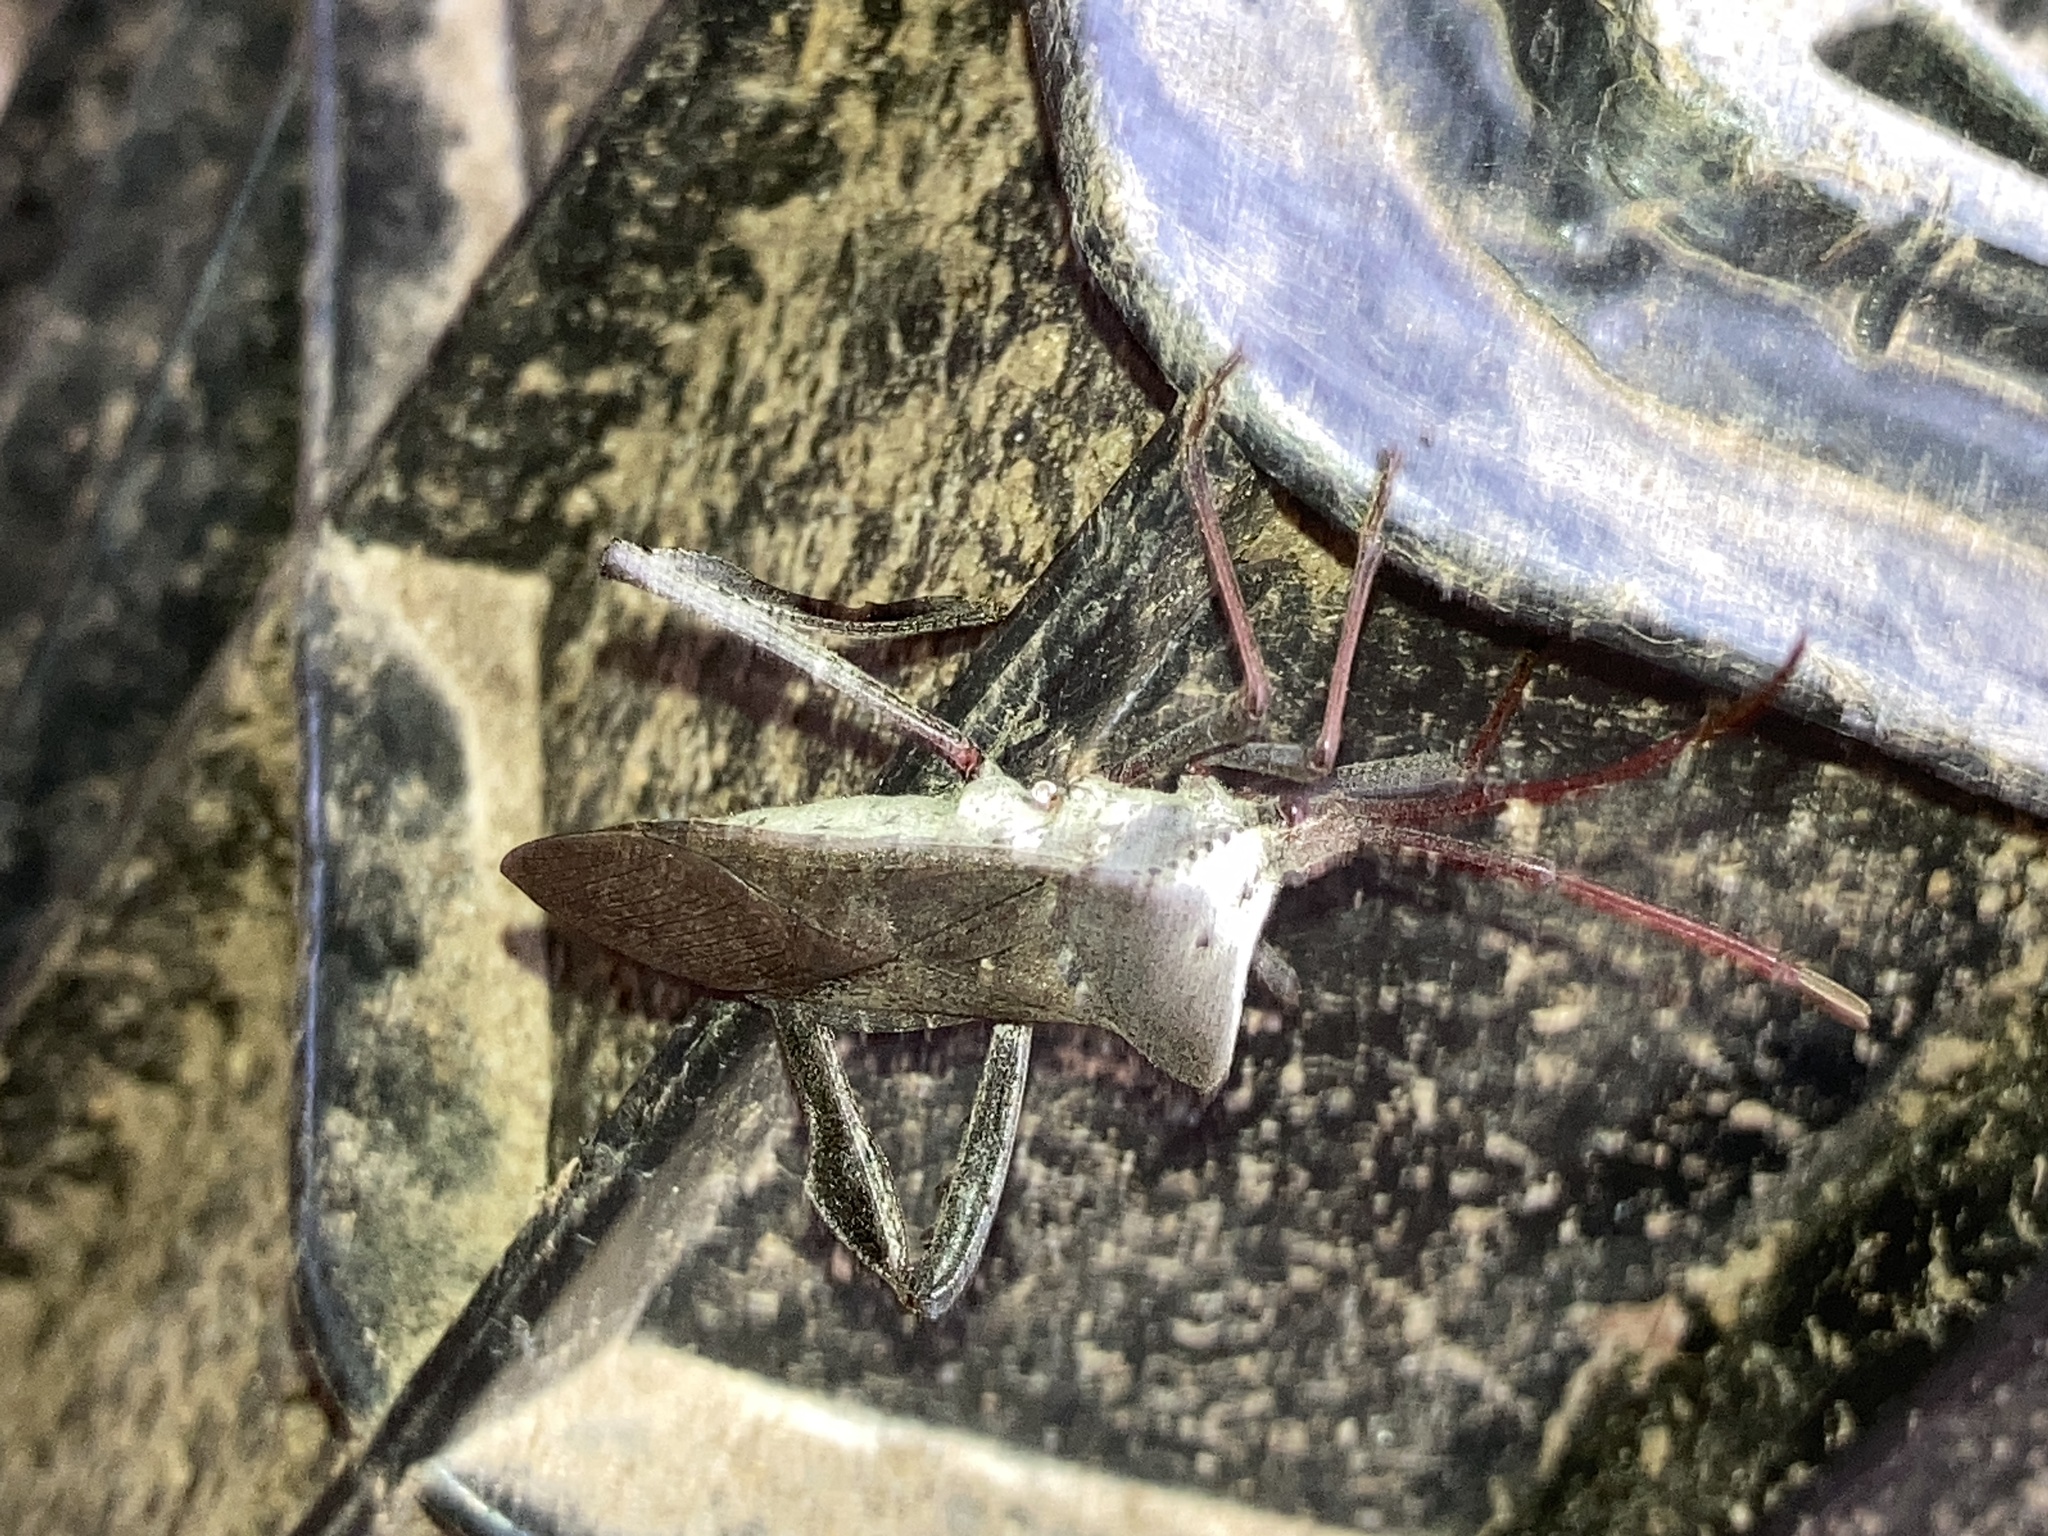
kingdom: Animalia
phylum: Arthropoda
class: Insecta
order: Hemiptera
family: Coreidae
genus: Acanthocephala
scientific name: Acanthocephala declivis
